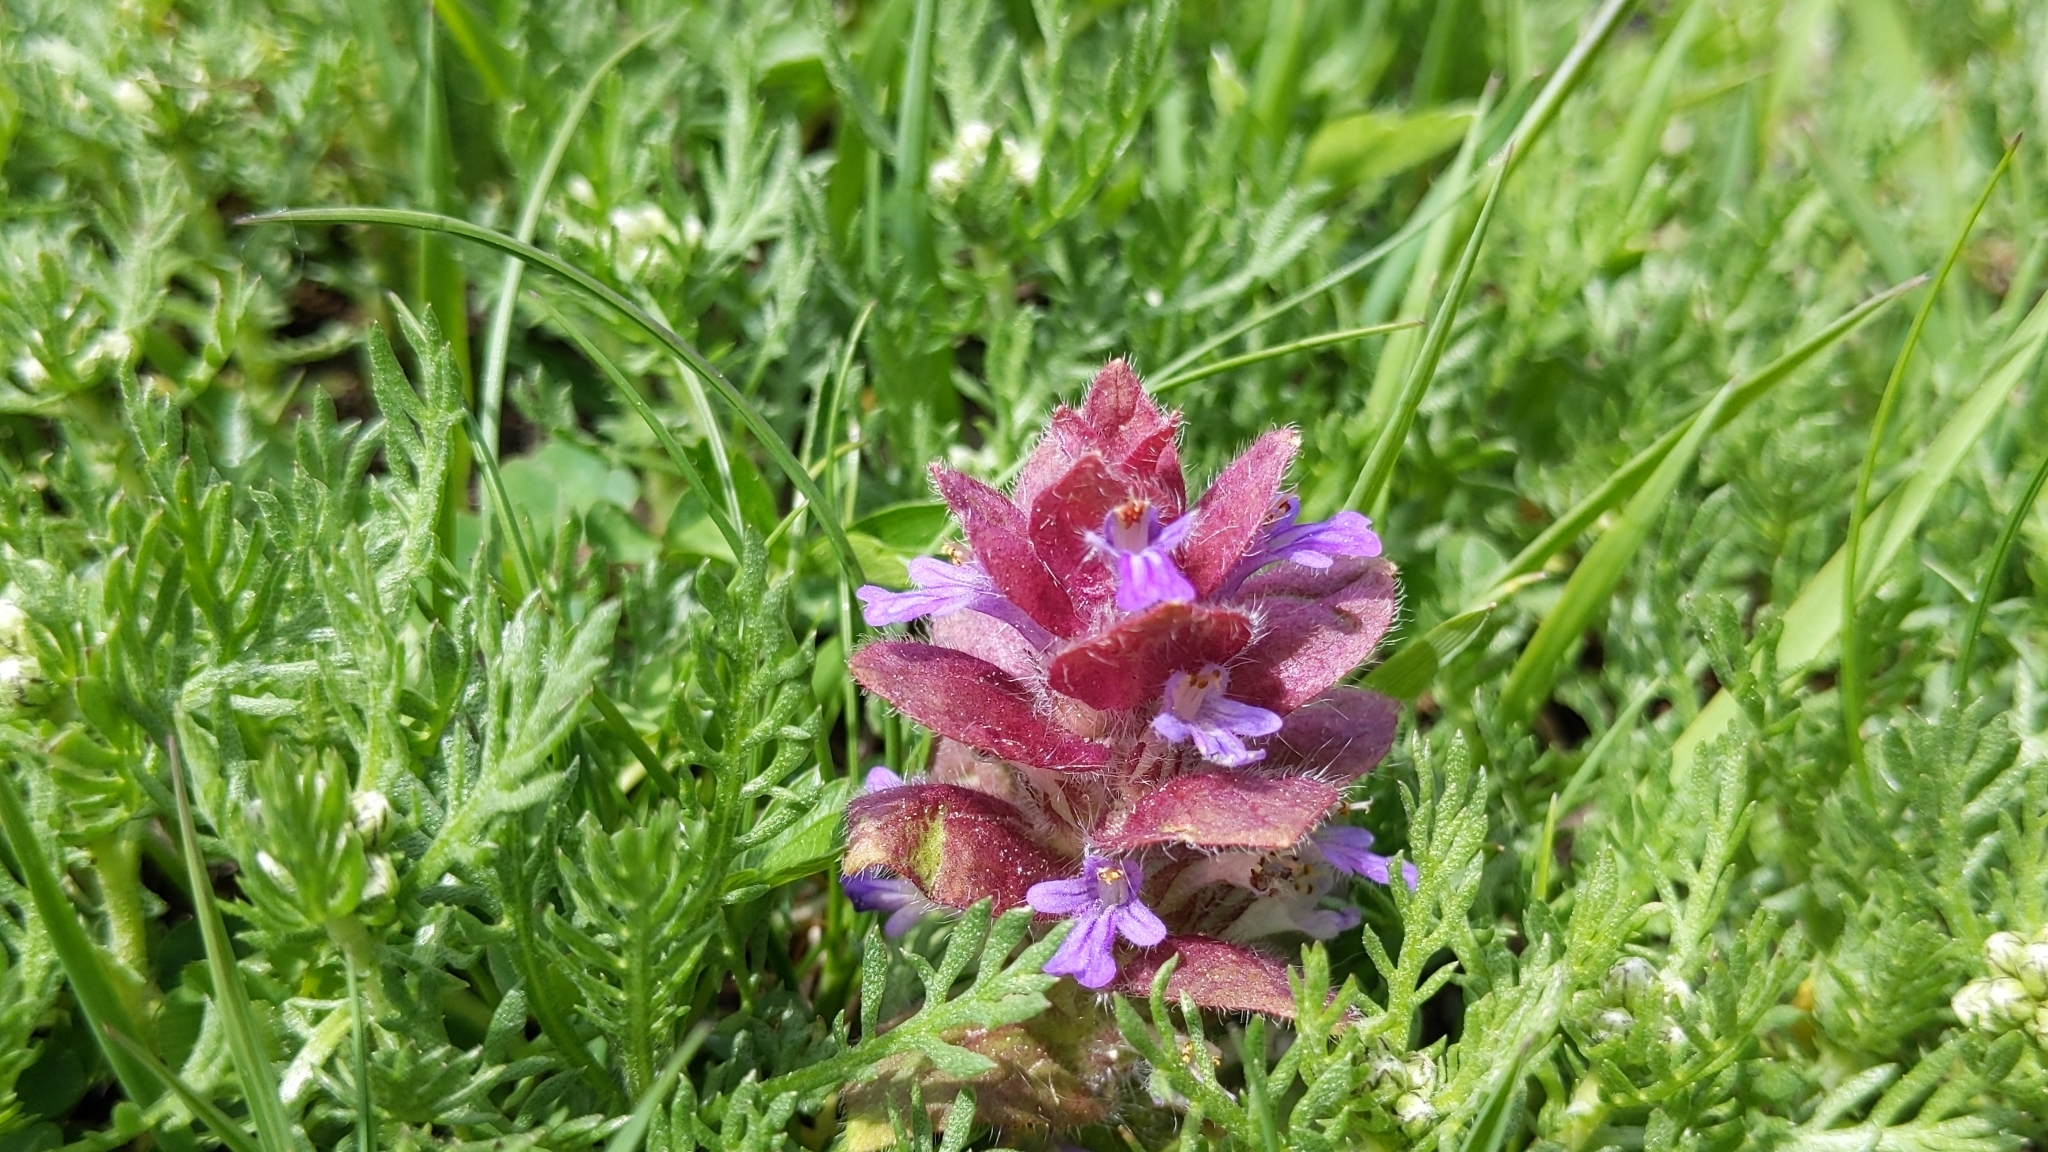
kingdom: Plantae
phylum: Tracheophyta
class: Magnoliopsida
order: Lamiales
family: Lamiaceae
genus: Ajuga
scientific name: Ajuga pyramidalis
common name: Pyramid bugle
